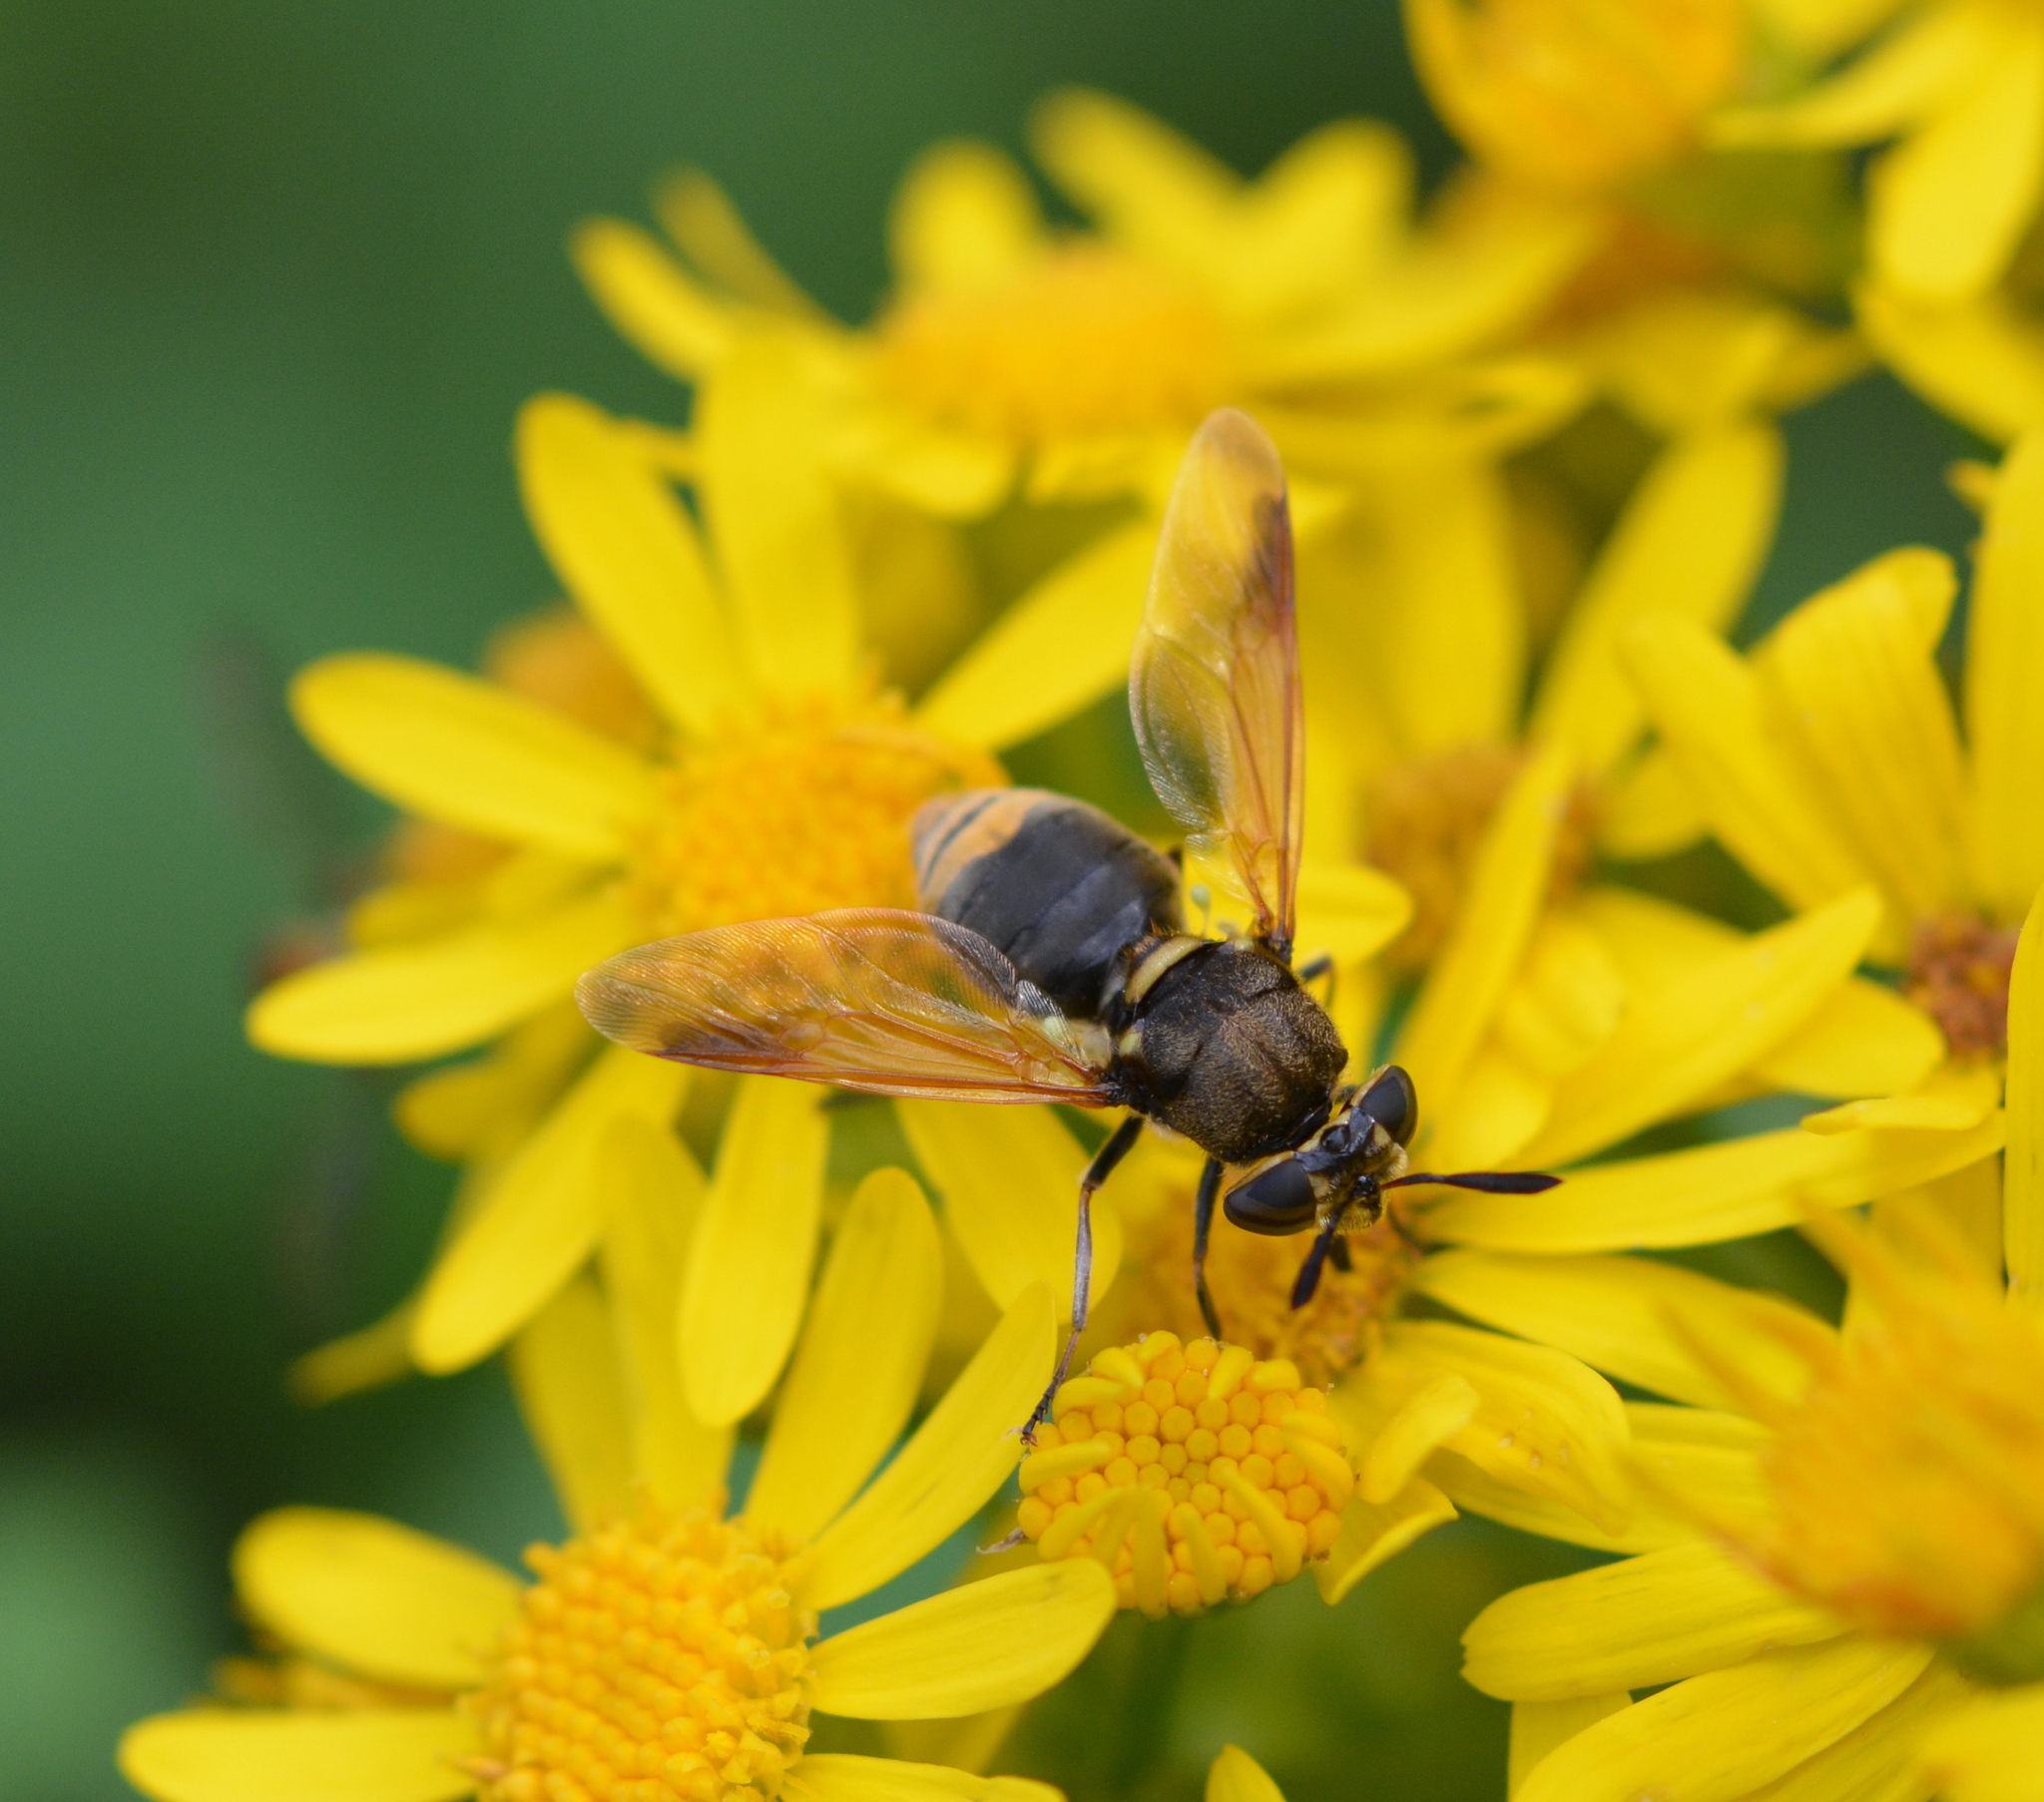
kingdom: Animalia
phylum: Arthropoda
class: Insecta
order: Diptera
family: Stratiomyidae
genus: Hoplitimyia
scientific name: Hoplitimyia mutabilis
